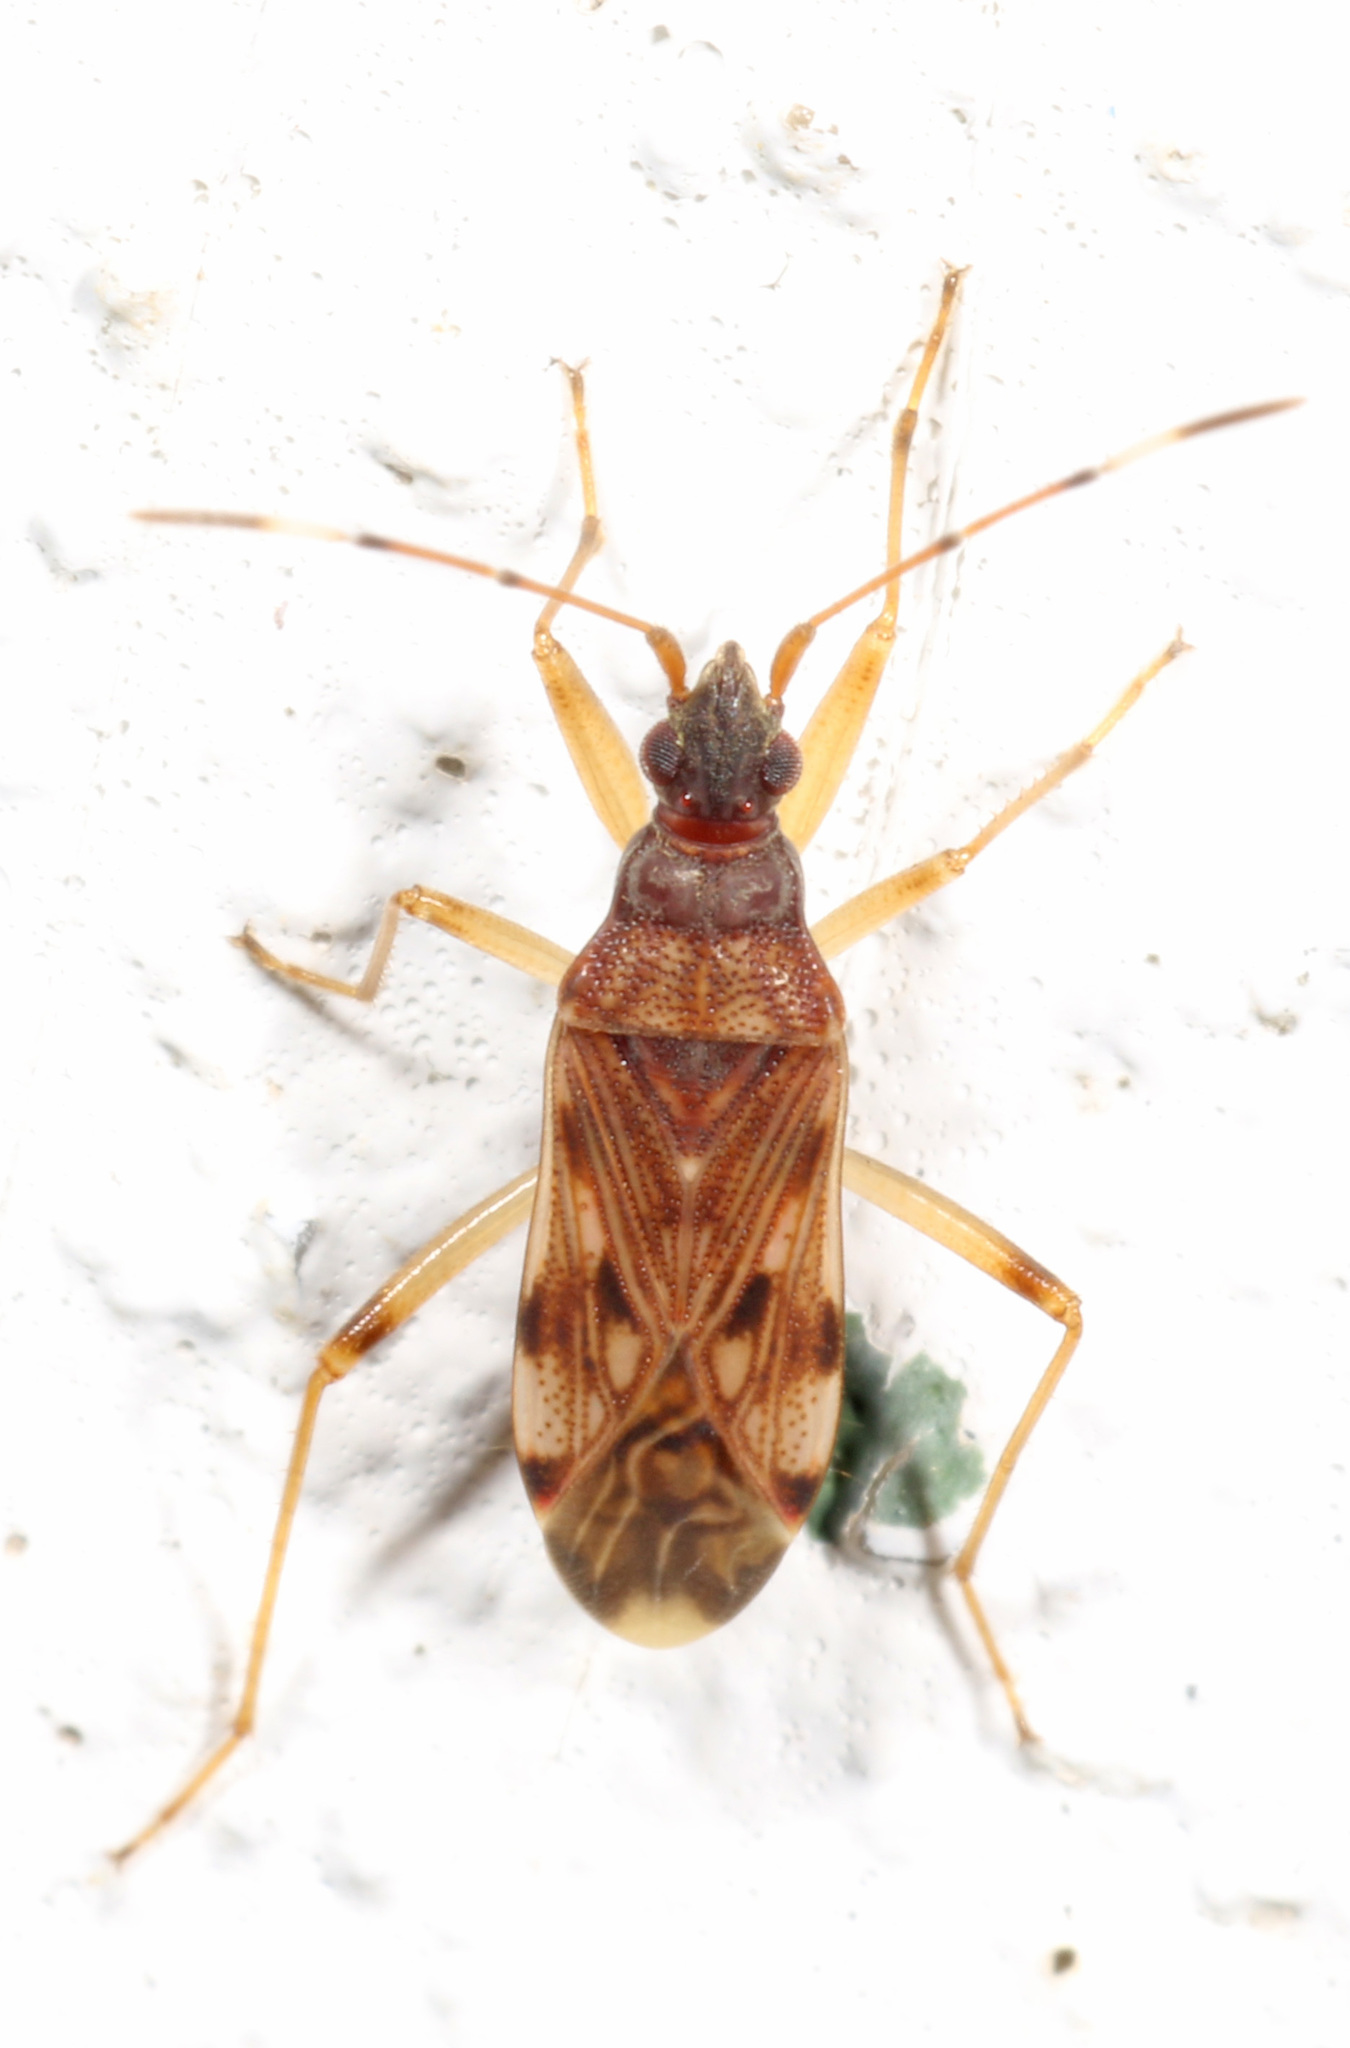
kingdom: Animalia
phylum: Arthropoda
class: Insecta
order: Hemiptera
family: Rhyparochromidae
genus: Ozophora
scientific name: Ozophora picturata
